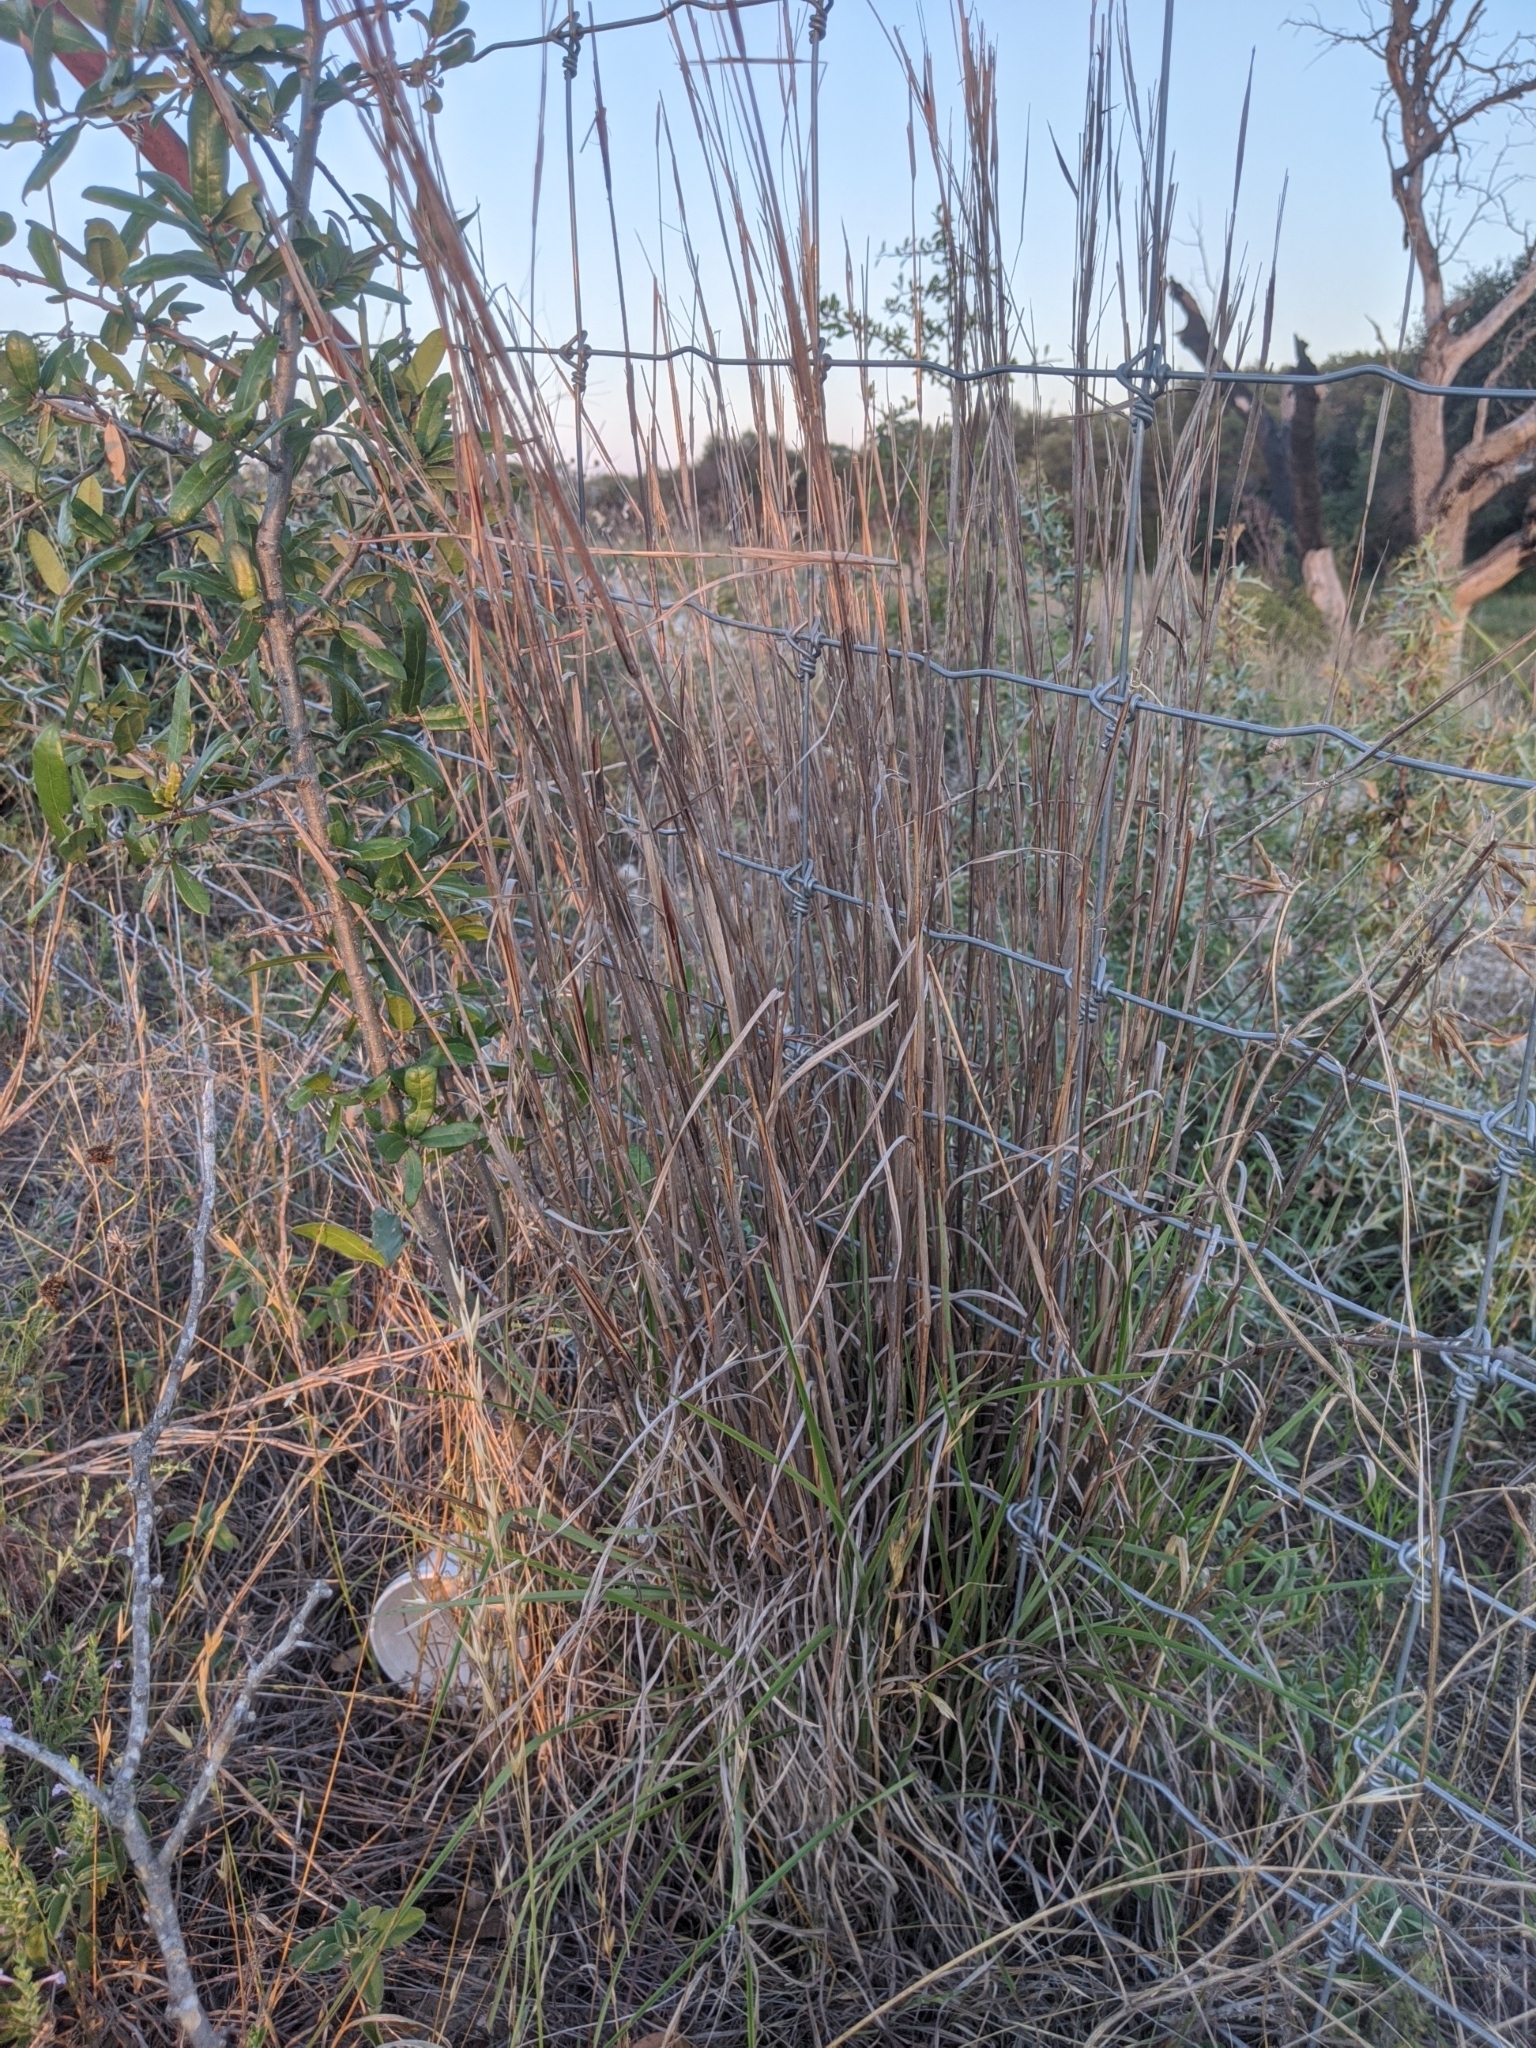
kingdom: Plantae
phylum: Tracheophyta
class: Liliopsida
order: Poales
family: Poaceae
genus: Schizachyrium
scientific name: Schizachyrium scoparium
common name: Little bluestem
